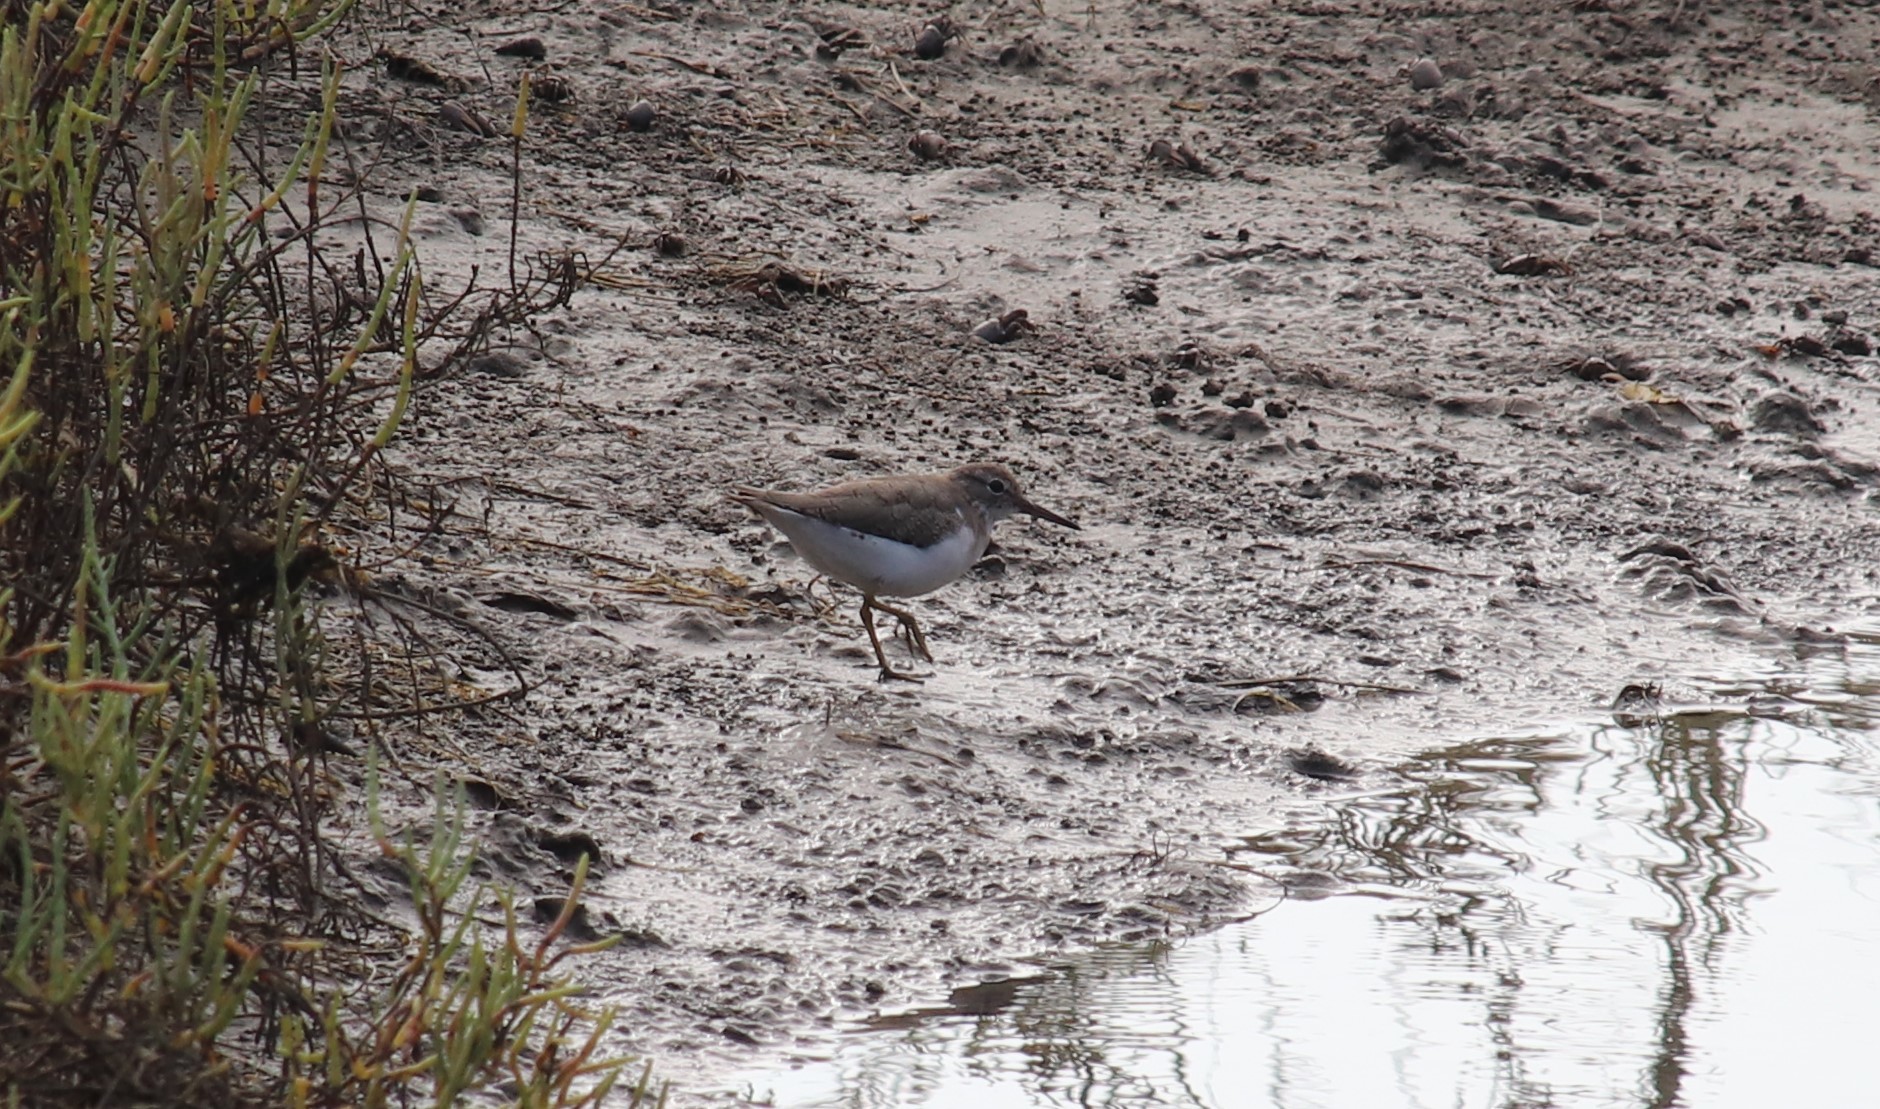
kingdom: Animalia
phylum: Chordata
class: Aves
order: Charadriiformes
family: Scolopacidae
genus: Actitis
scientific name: Actitis macularius
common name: Spotted sandpiper
